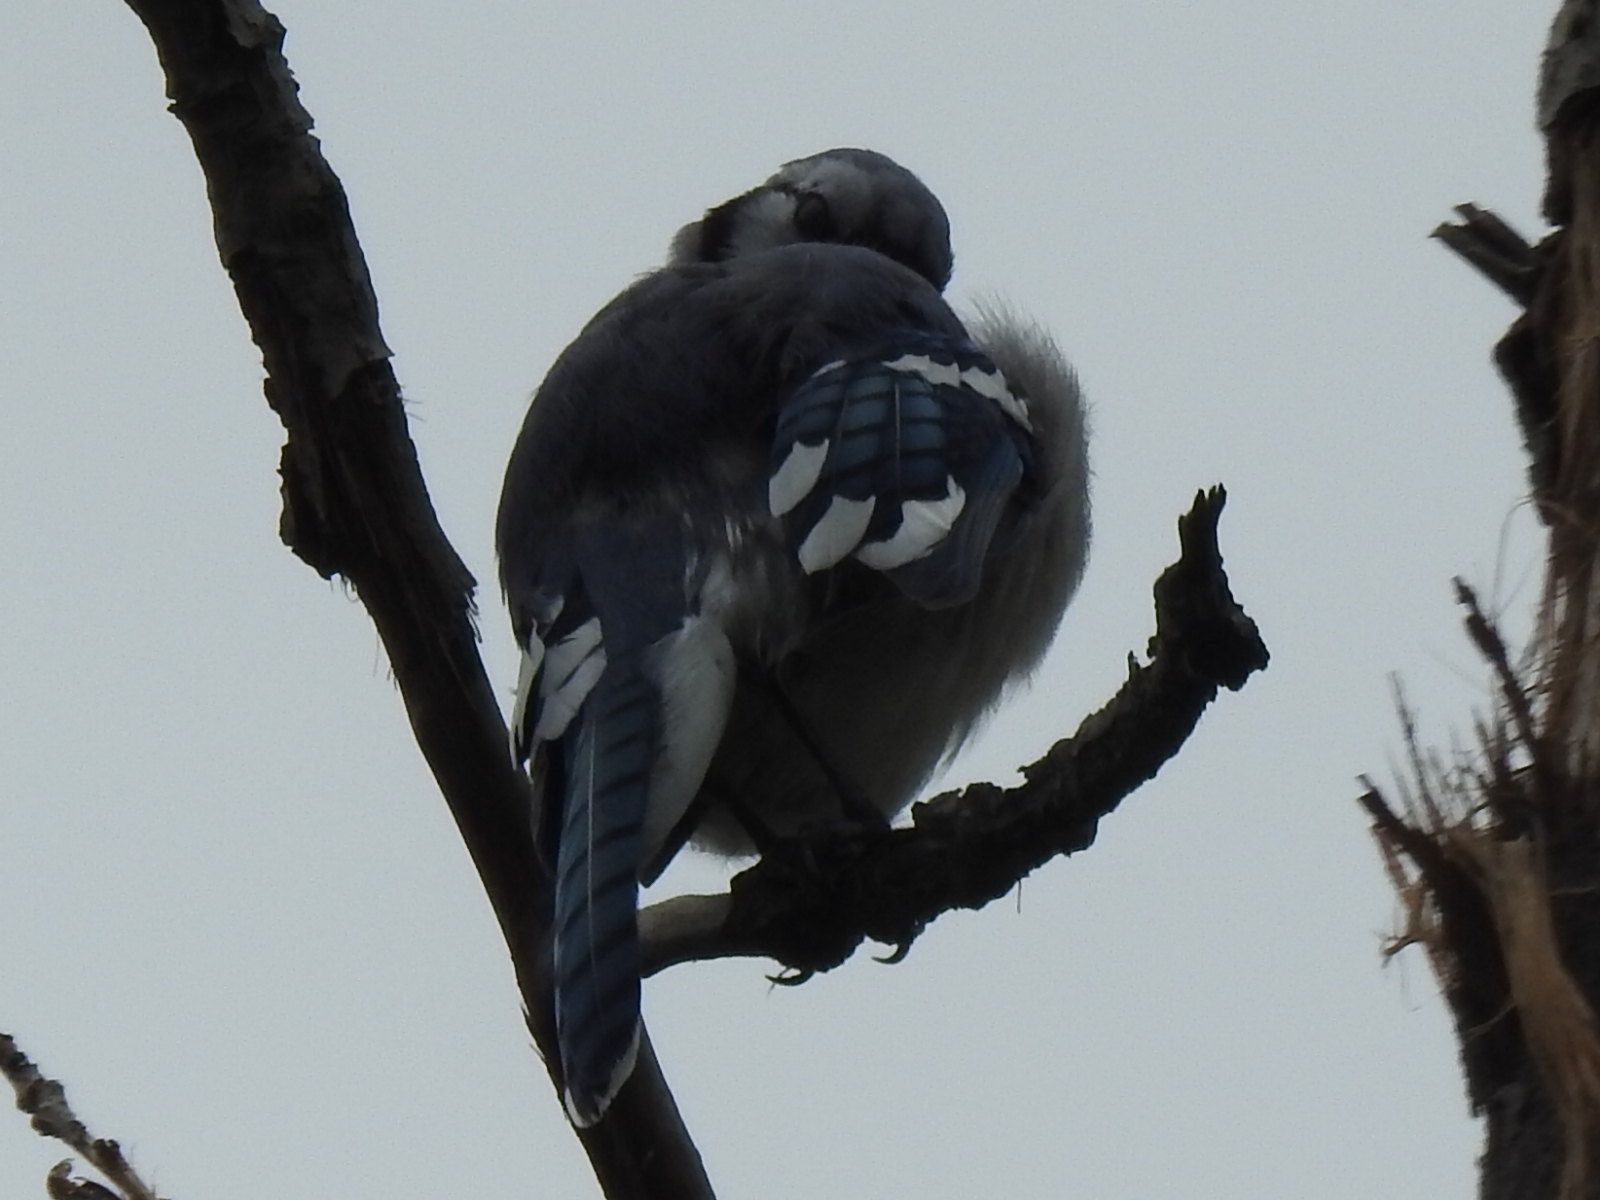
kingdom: Animalia
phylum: Chordata
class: Aves
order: Passeriformes
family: Corvidae
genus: Cyanocitta
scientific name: Cyanocitta cristata
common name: Blue jay
